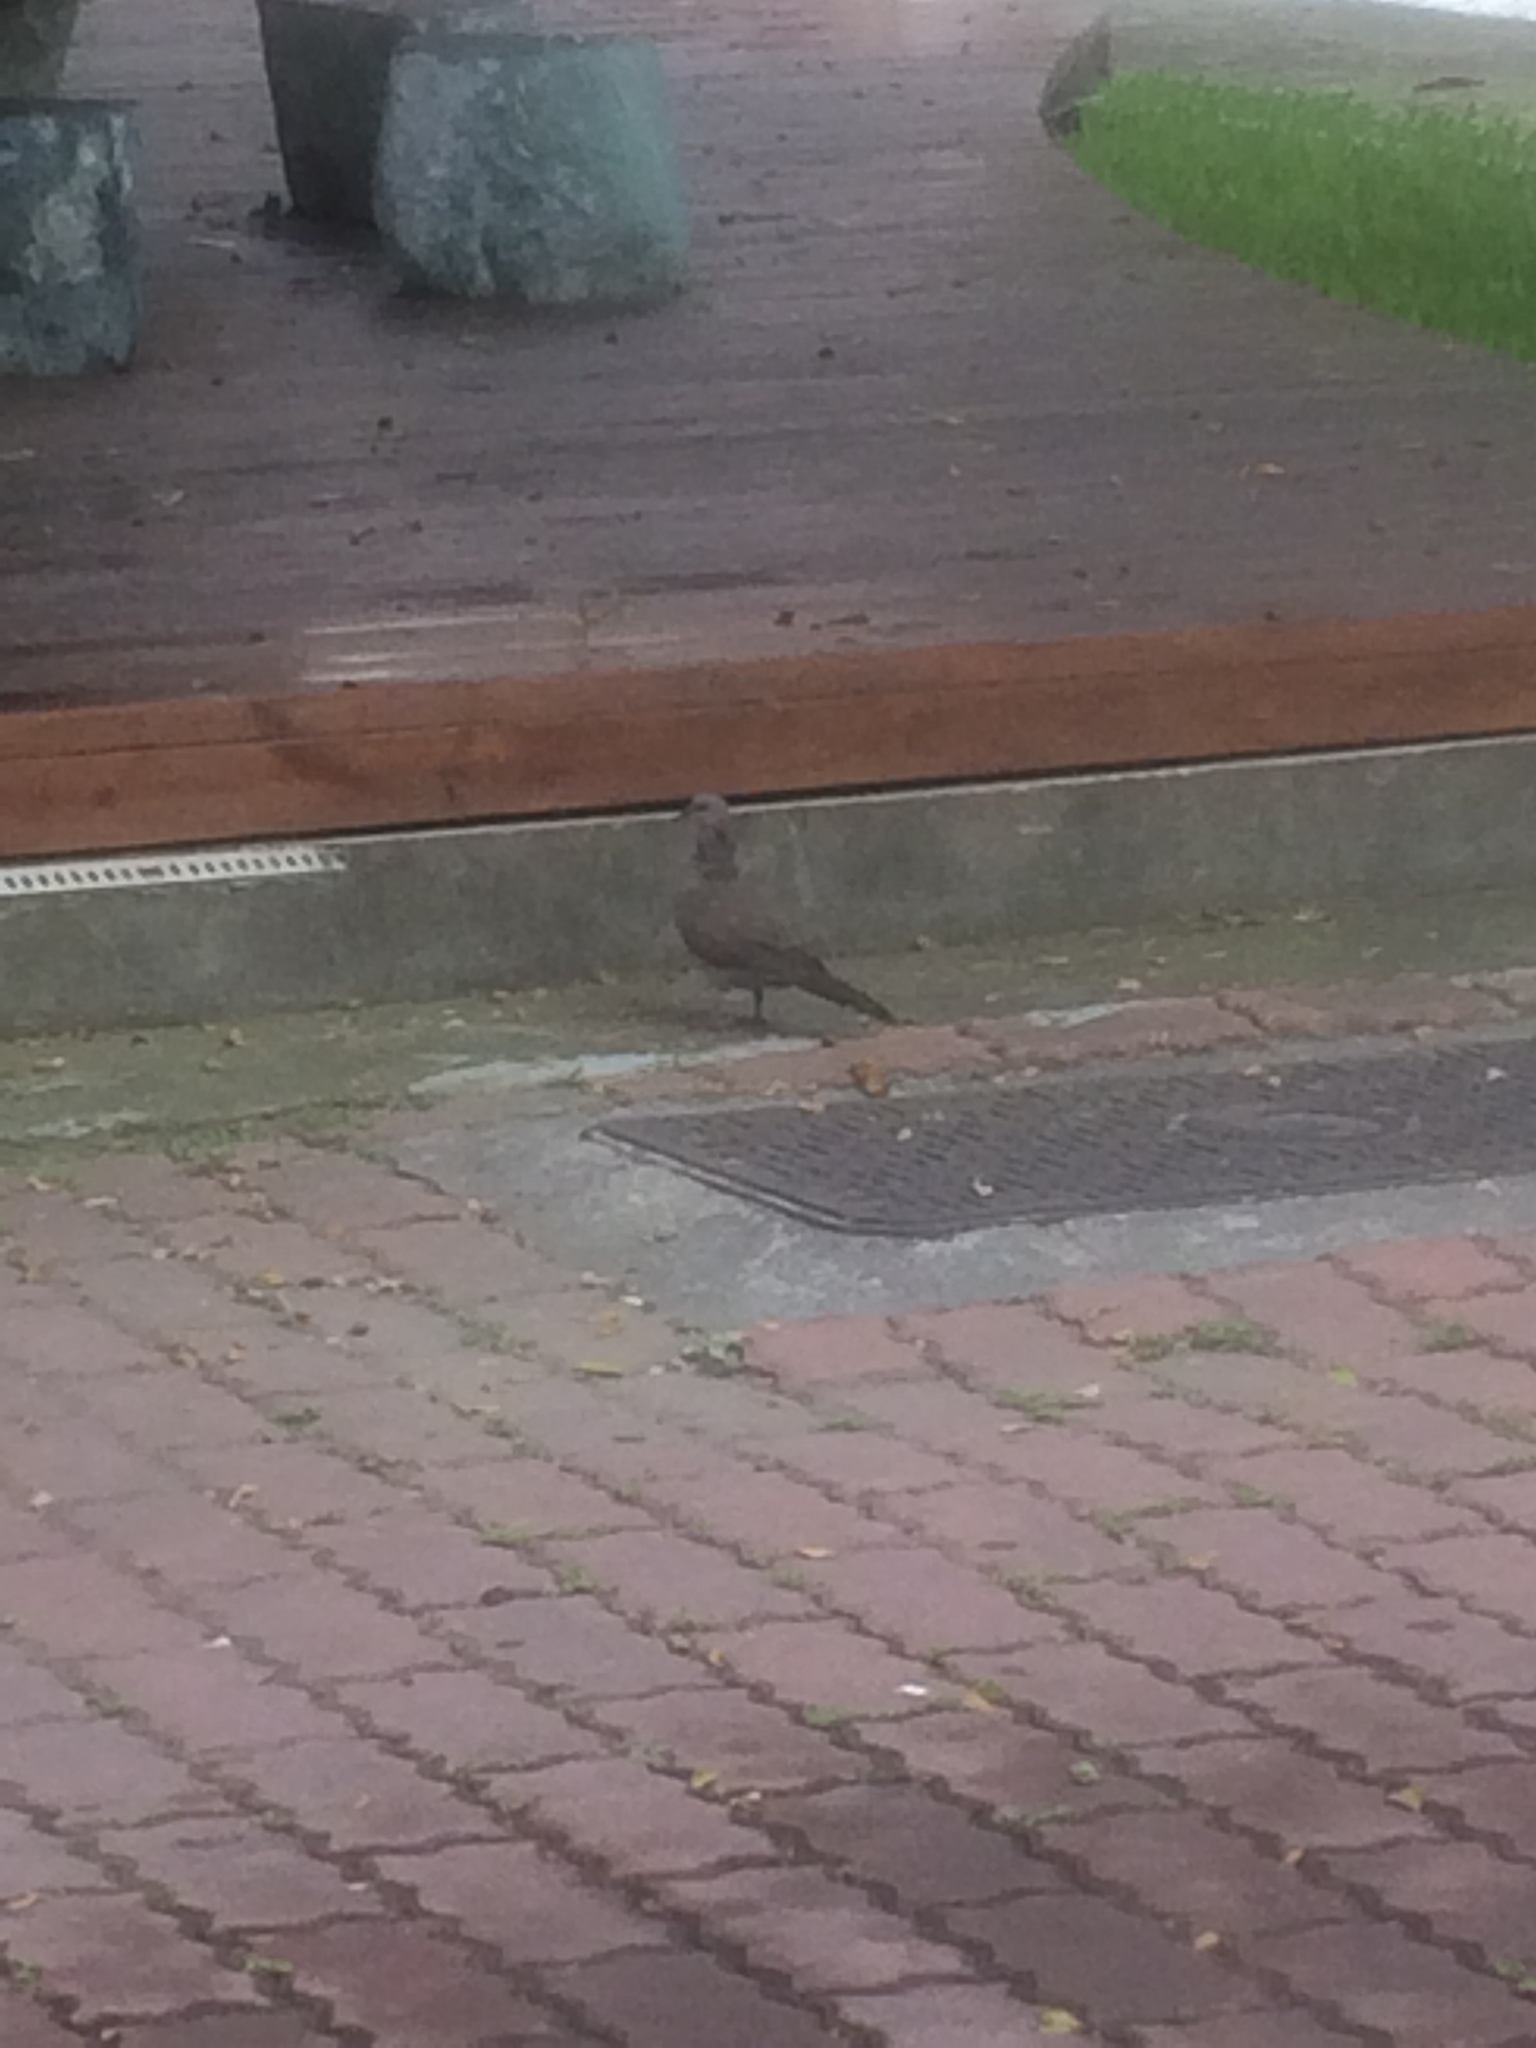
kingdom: Animalia
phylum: Chordata
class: Aves
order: Columbiformes
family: Columbidae
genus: Spilopelia
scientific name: Spilopelia chinensis
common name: Spotted dove
